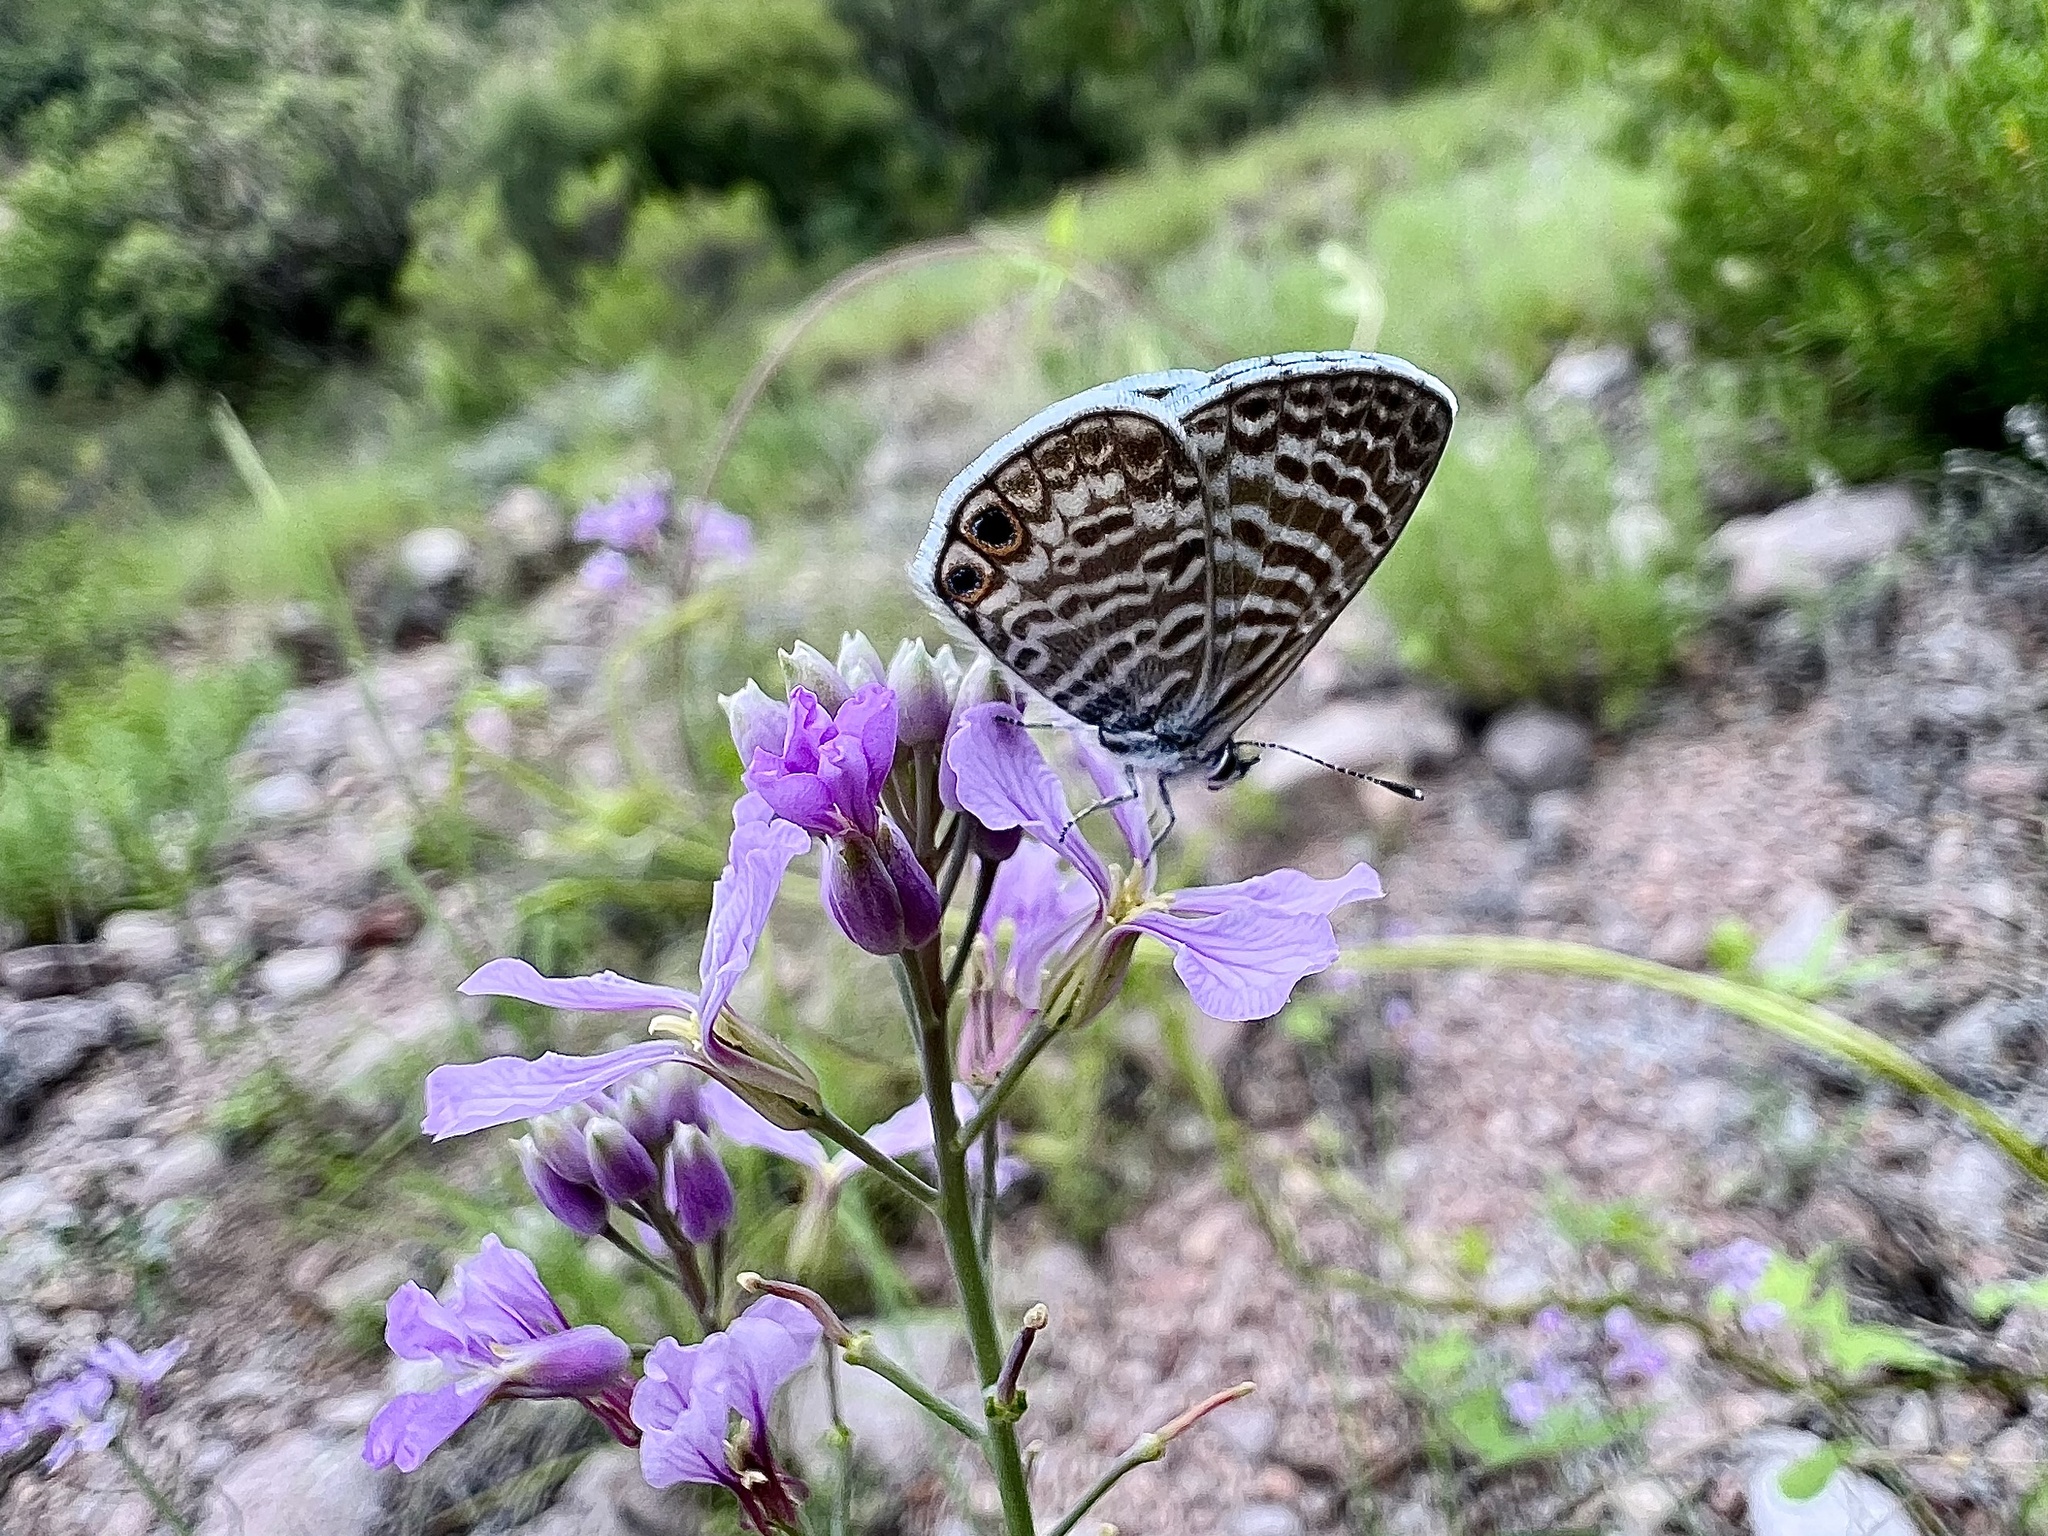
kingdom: Animalia
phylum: Arthropoda
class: Insecta
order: Lepidoptera
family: Lycaenidae
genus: Leptotes
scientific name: Leptotes marina
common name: Marine blue
